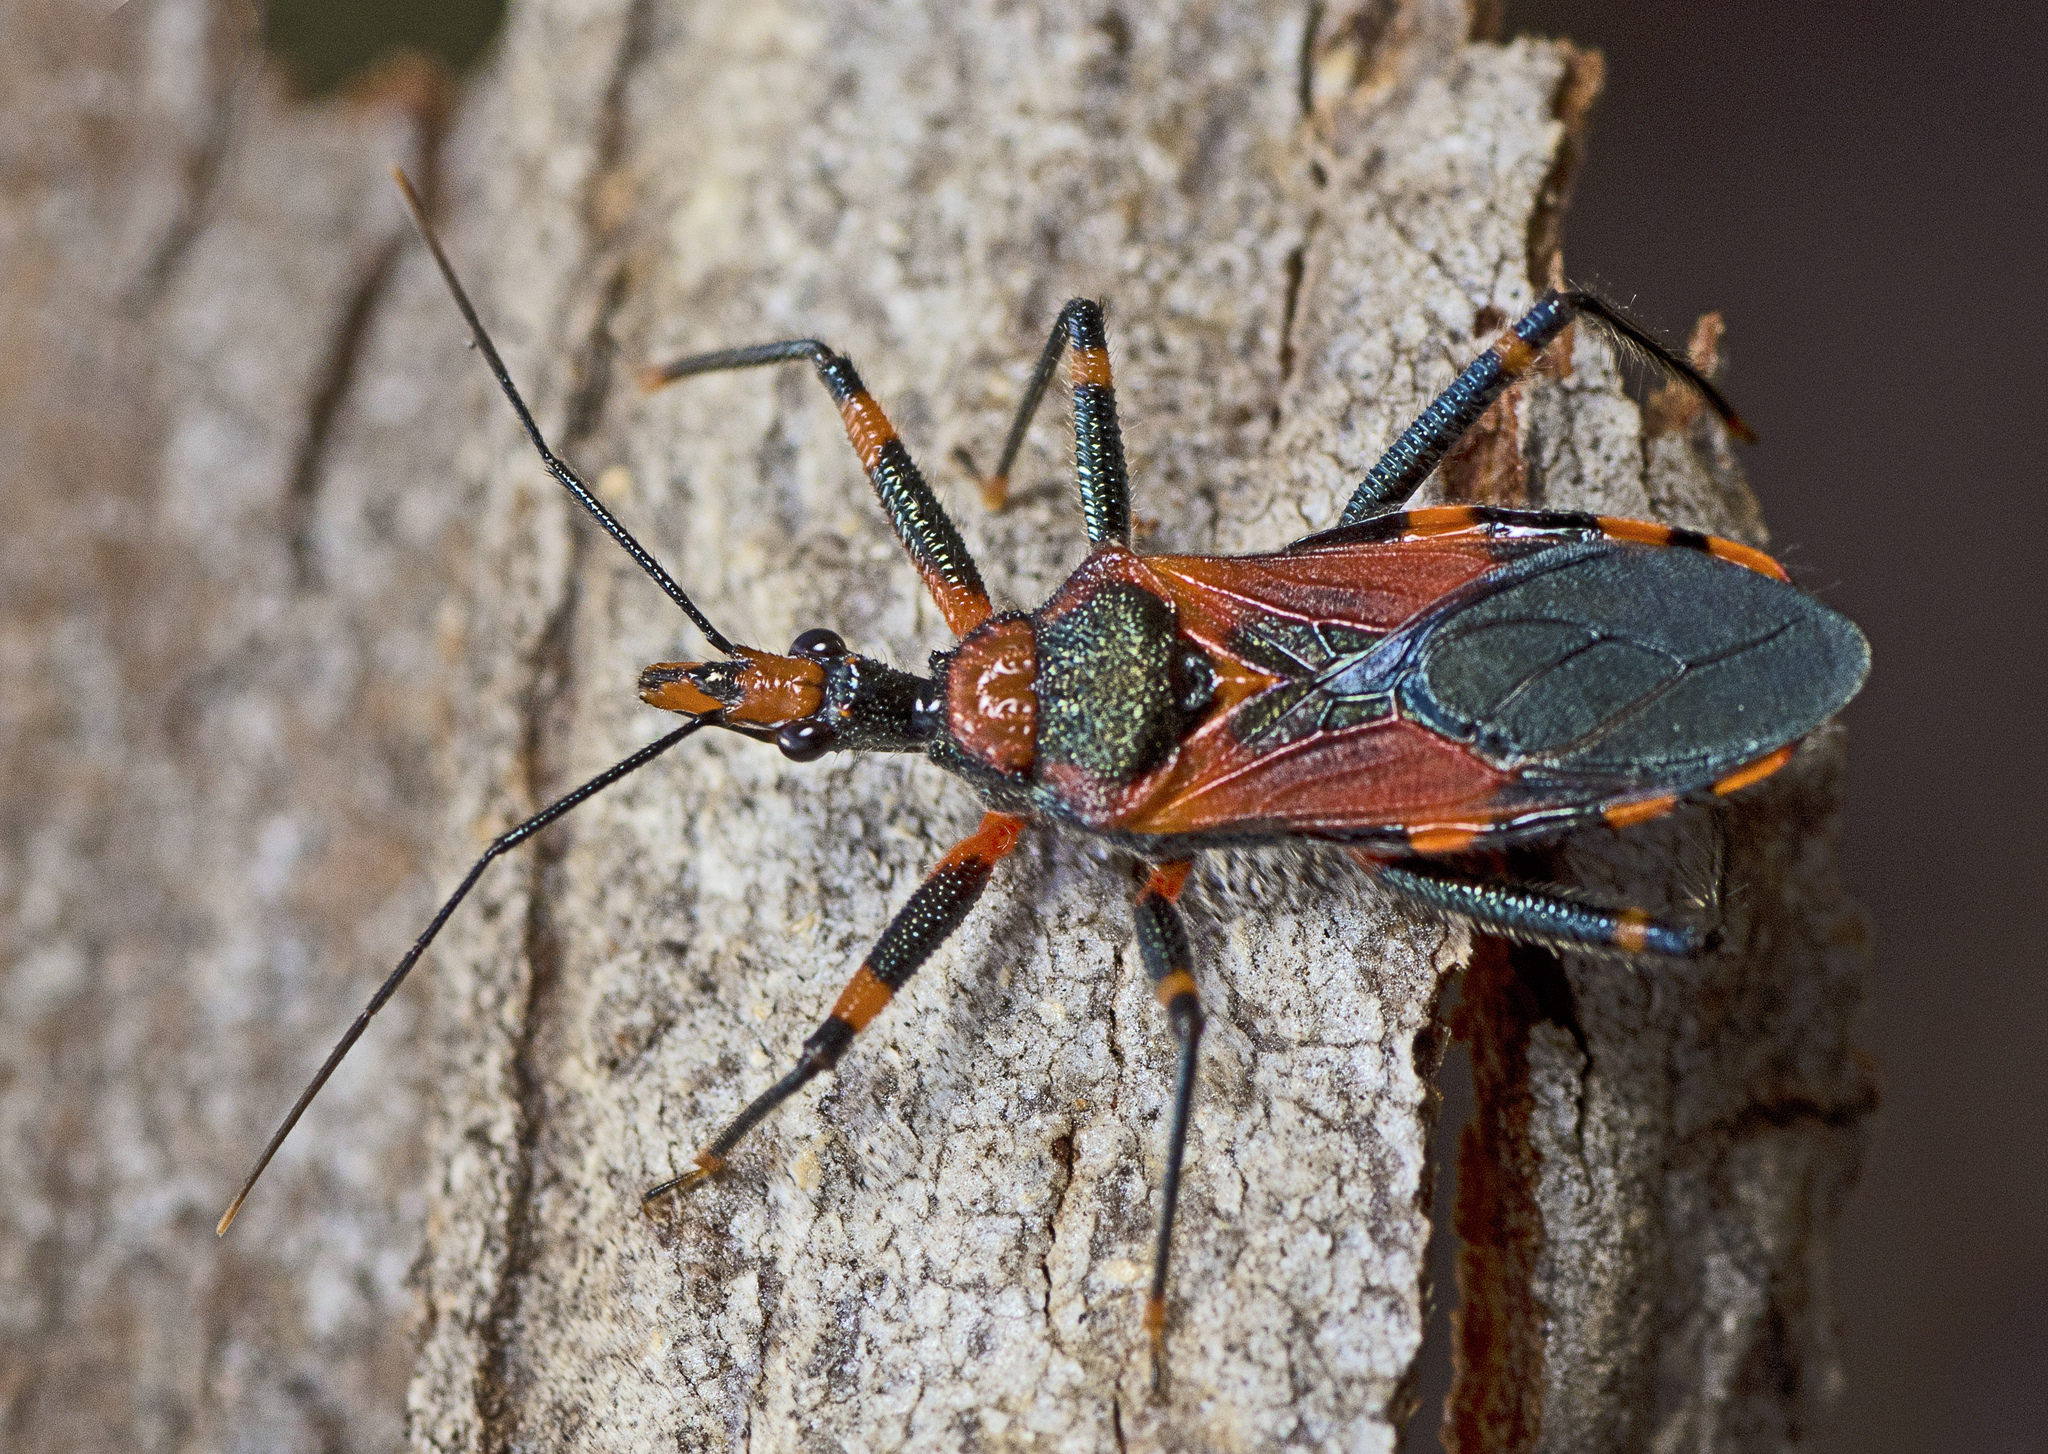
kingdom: Animalia
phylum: Arthropoda
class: Insecta
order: Hemiptera
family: Reduviidae
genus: Havinthus
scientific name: Havinthus rufovarius
